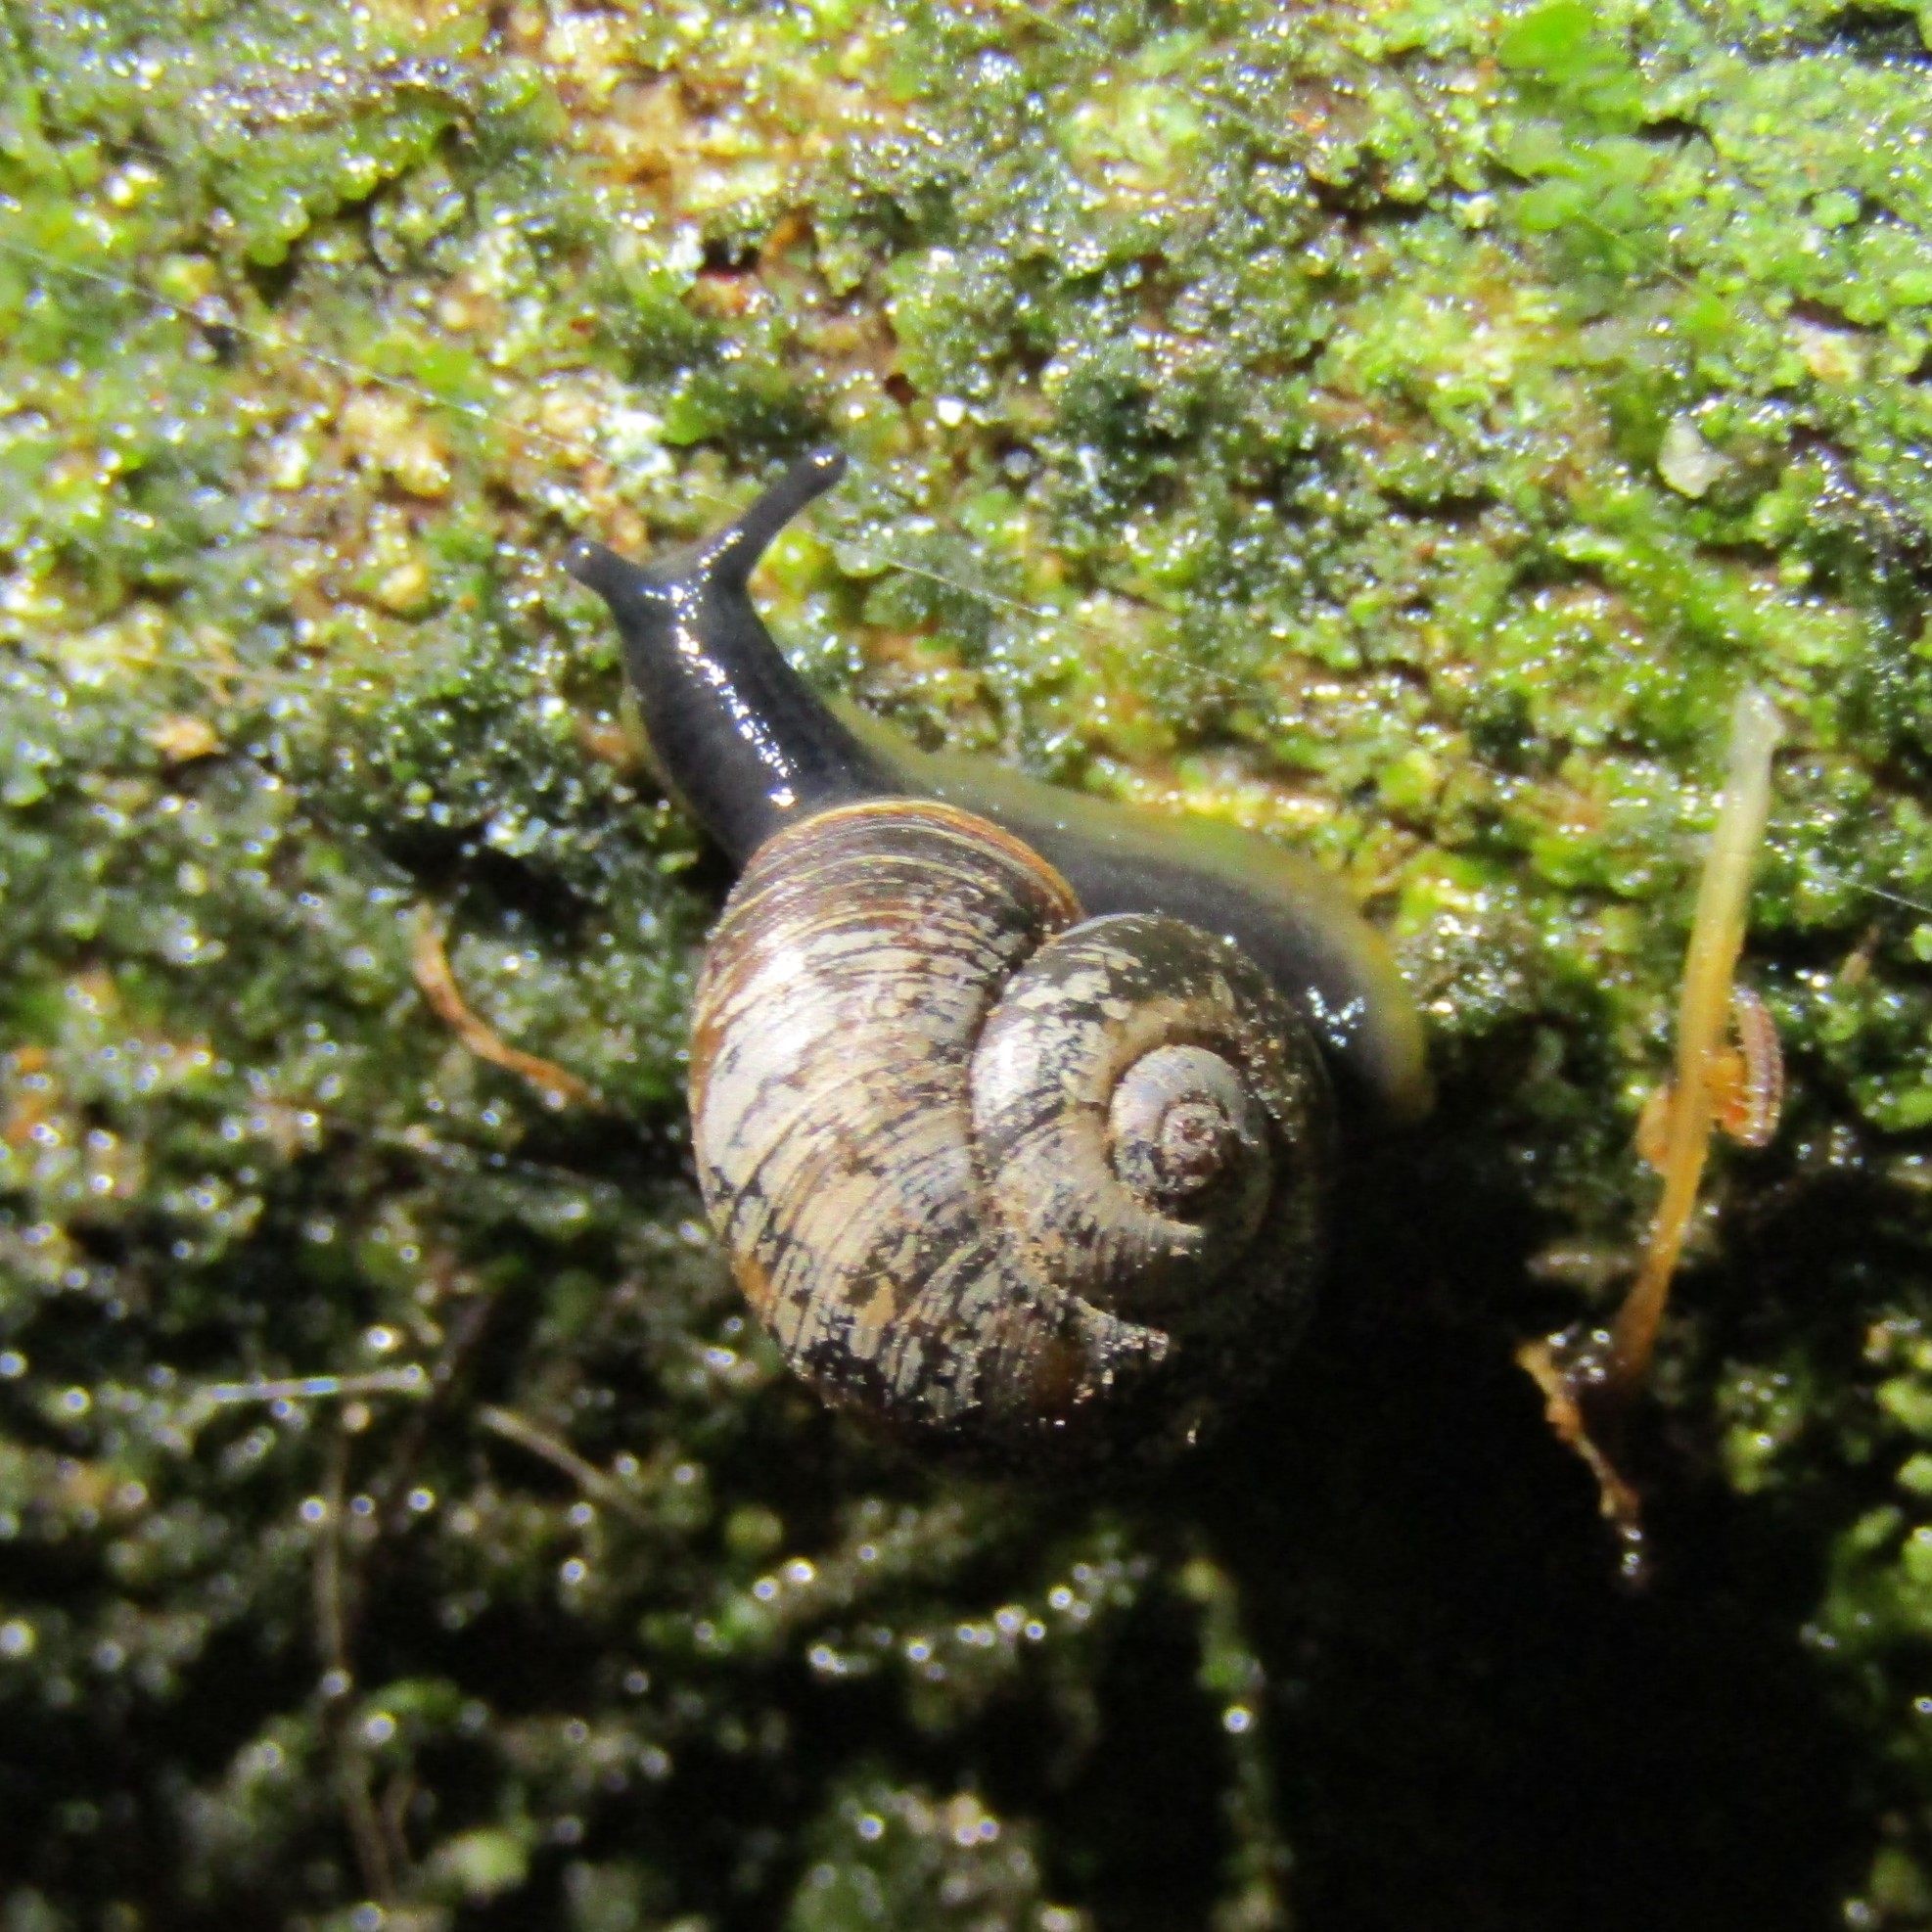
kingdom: Animalia
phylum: Mollusca
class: Gastropoda
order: Stylommatophora
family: Charopidae
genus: Flammulina
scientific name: Flammulina perdita
